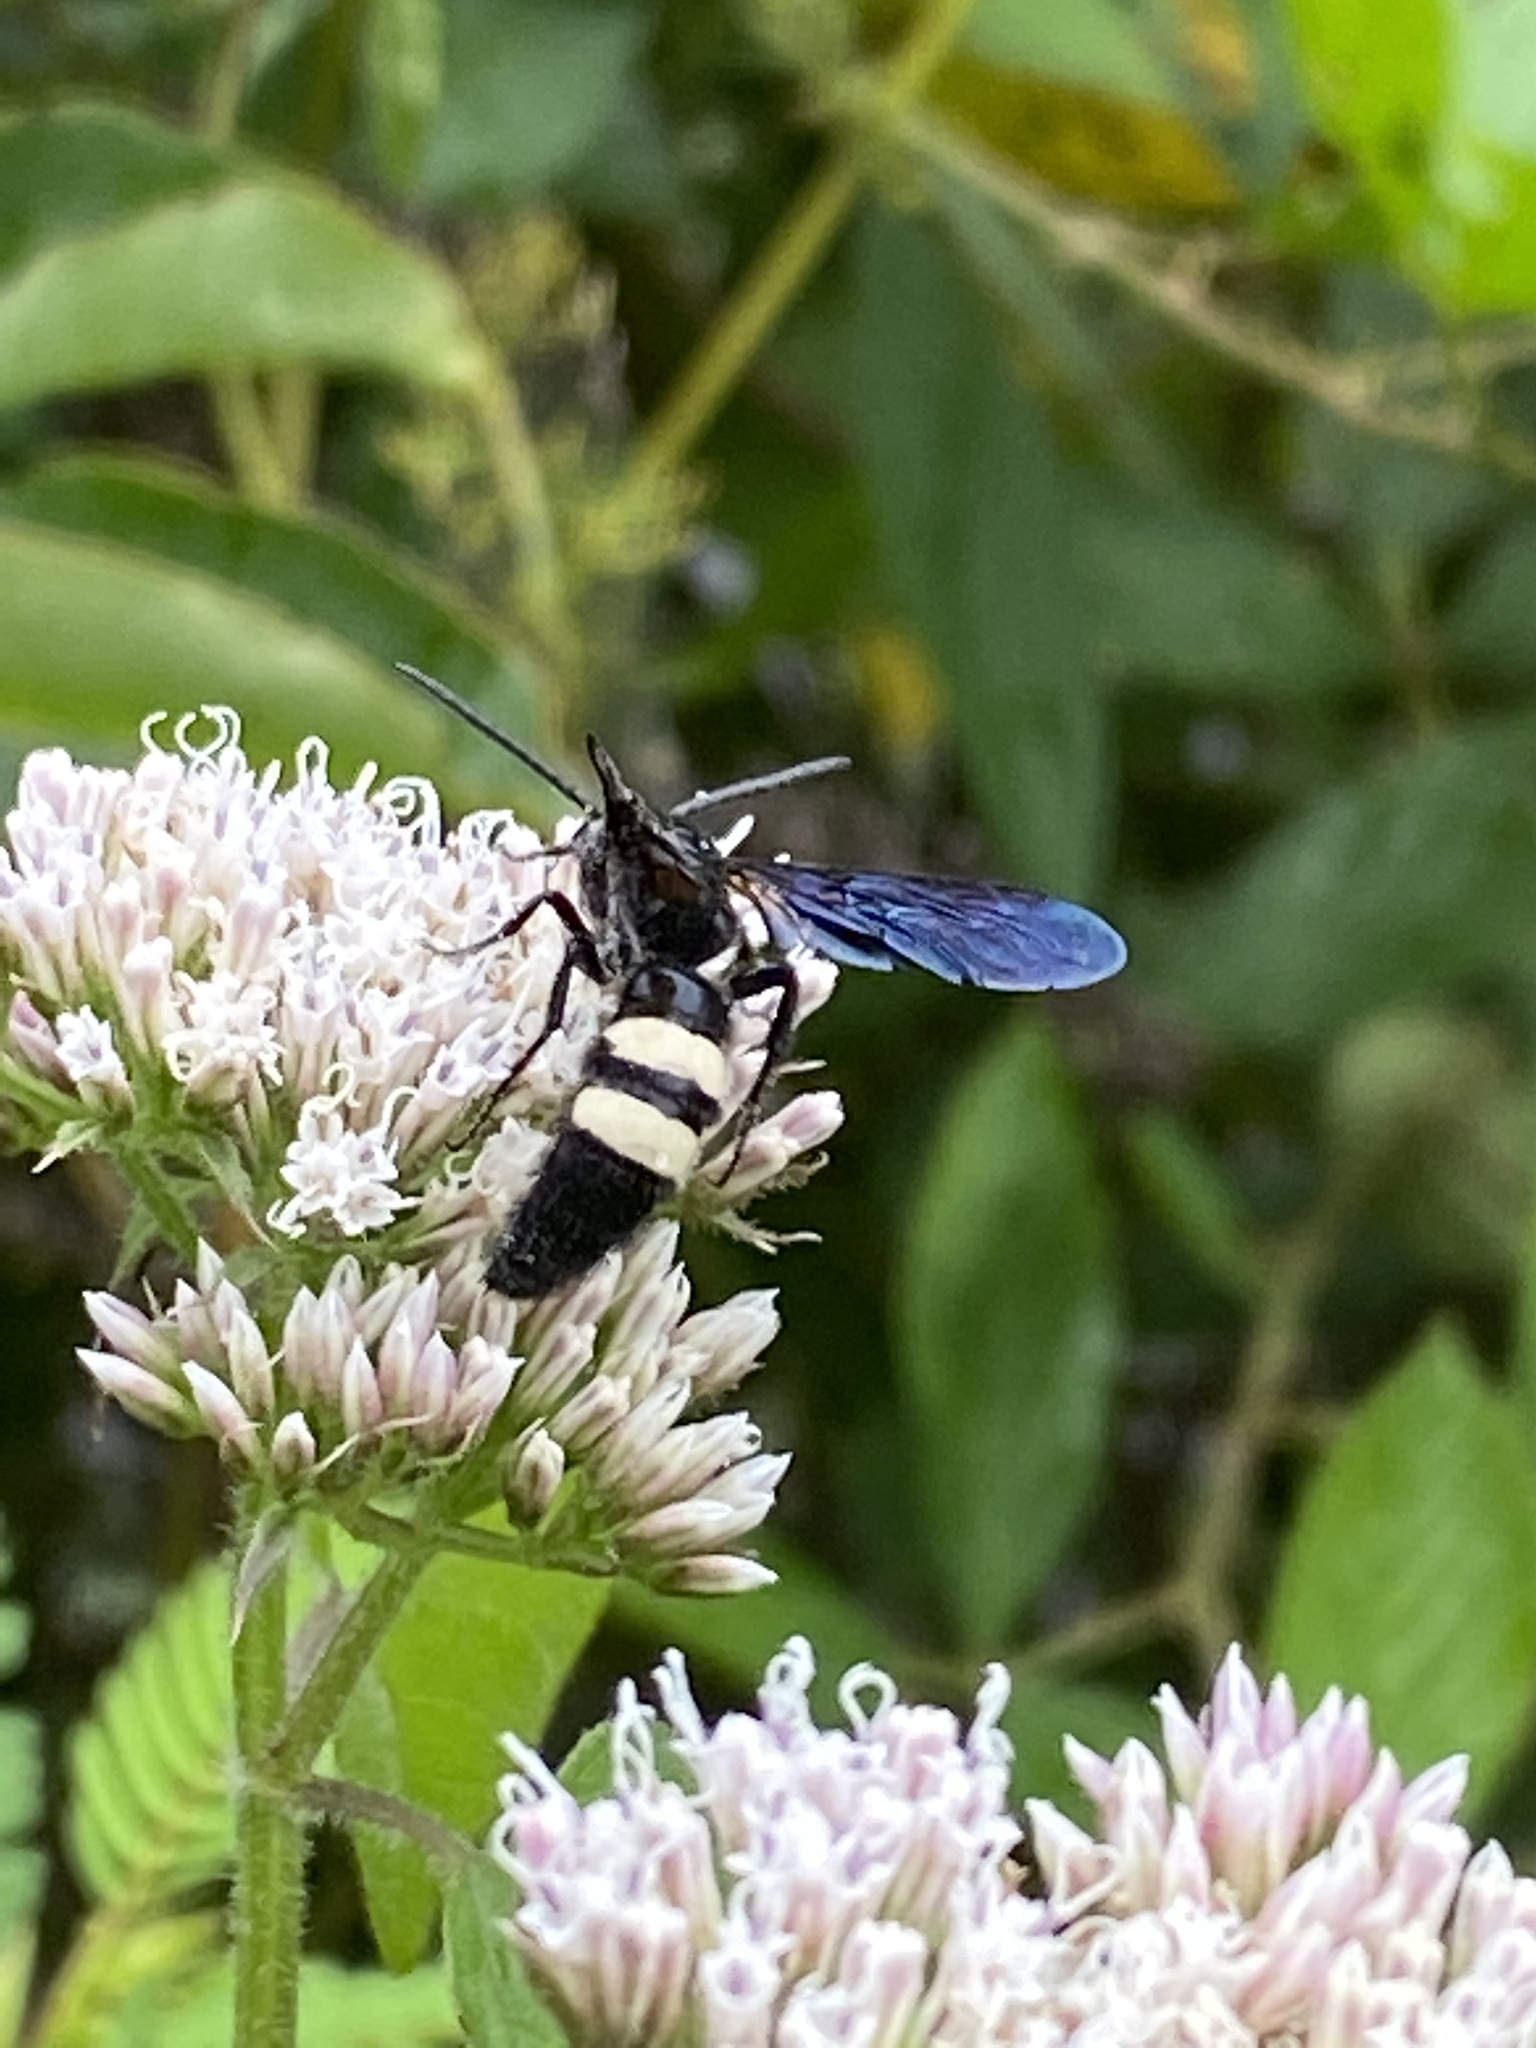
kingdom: Animalia
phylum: Arthropoda
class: Insecta
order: Hymenoptera
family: Scoliidae
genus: Scolia
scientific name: Scolia bicincta
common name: Double-banded scoliid wasp
